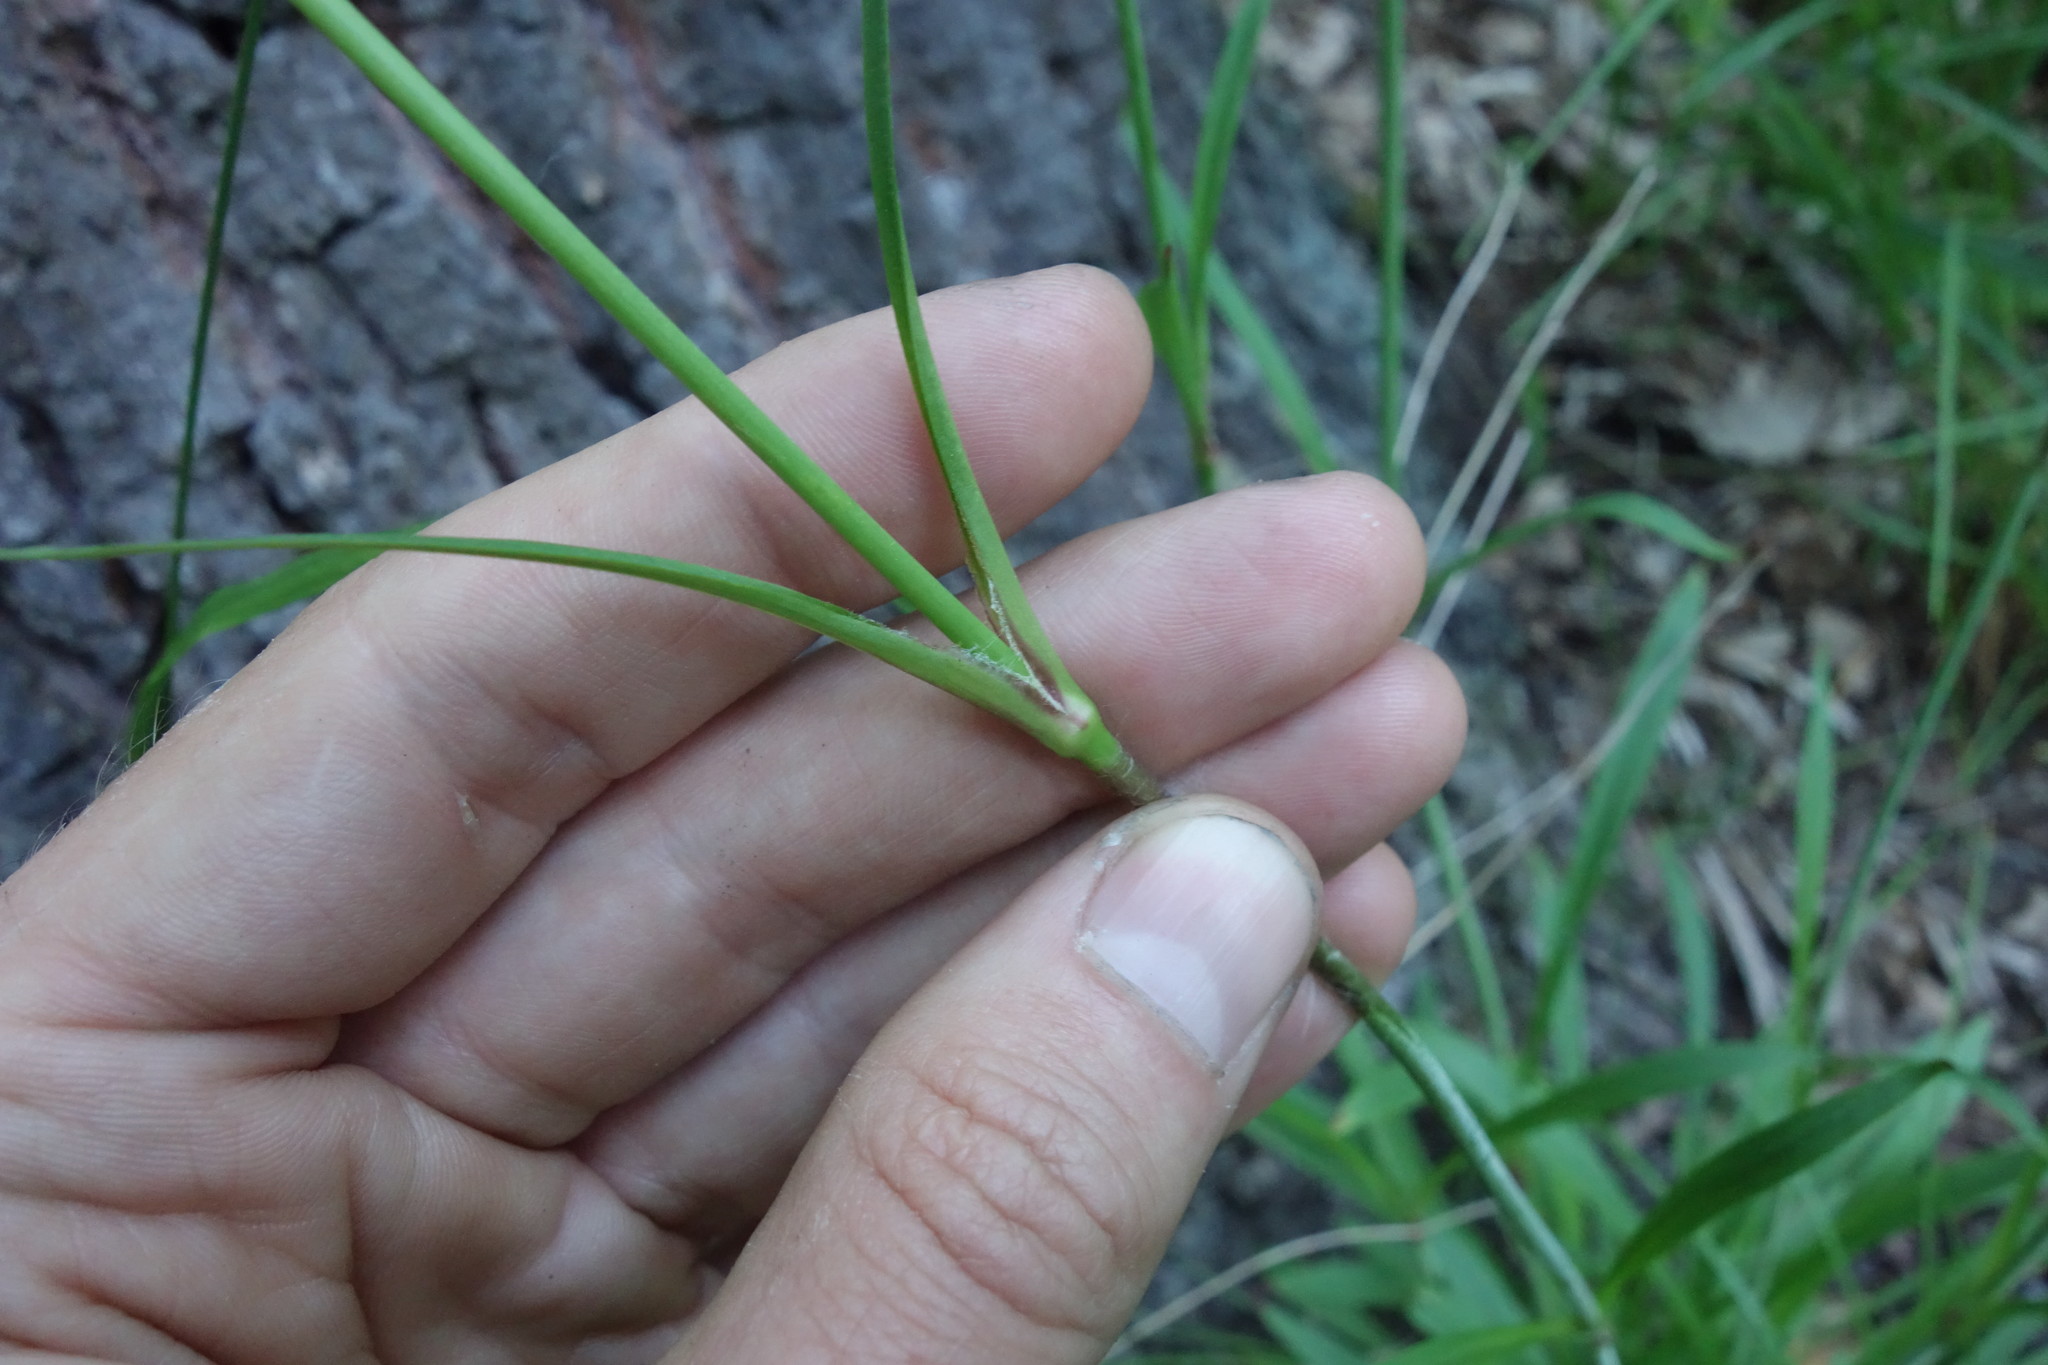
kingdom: Plantae
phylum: Tracheophyta
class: Magnoliopsida
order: Caryophyllales
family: Caryophyllaceae
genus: Viscaria
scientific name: Viscaria vulgaris
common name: Clammy campion
